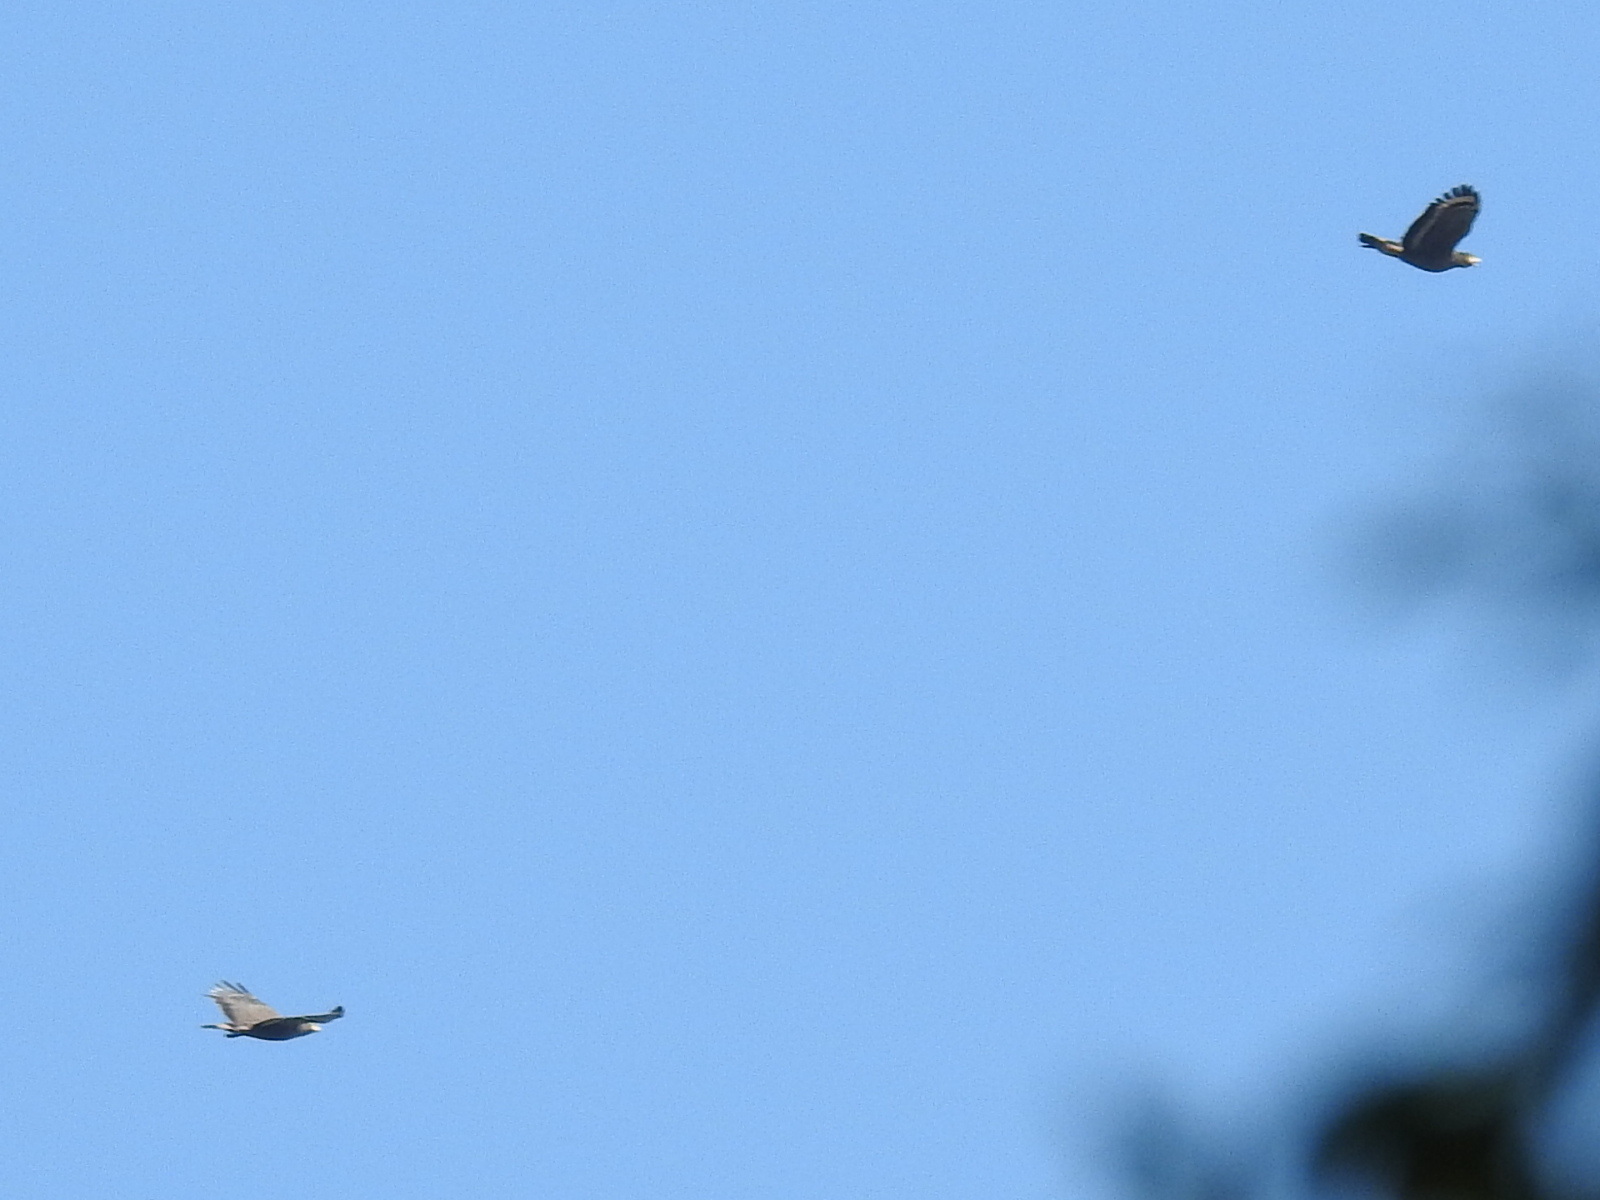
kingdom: Animalia
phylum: Chordata
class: Aves
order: Accipitriformes
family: Accipitridae
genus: Spilornis
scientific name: Spilornis cheela
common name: Crested serpent eagle
